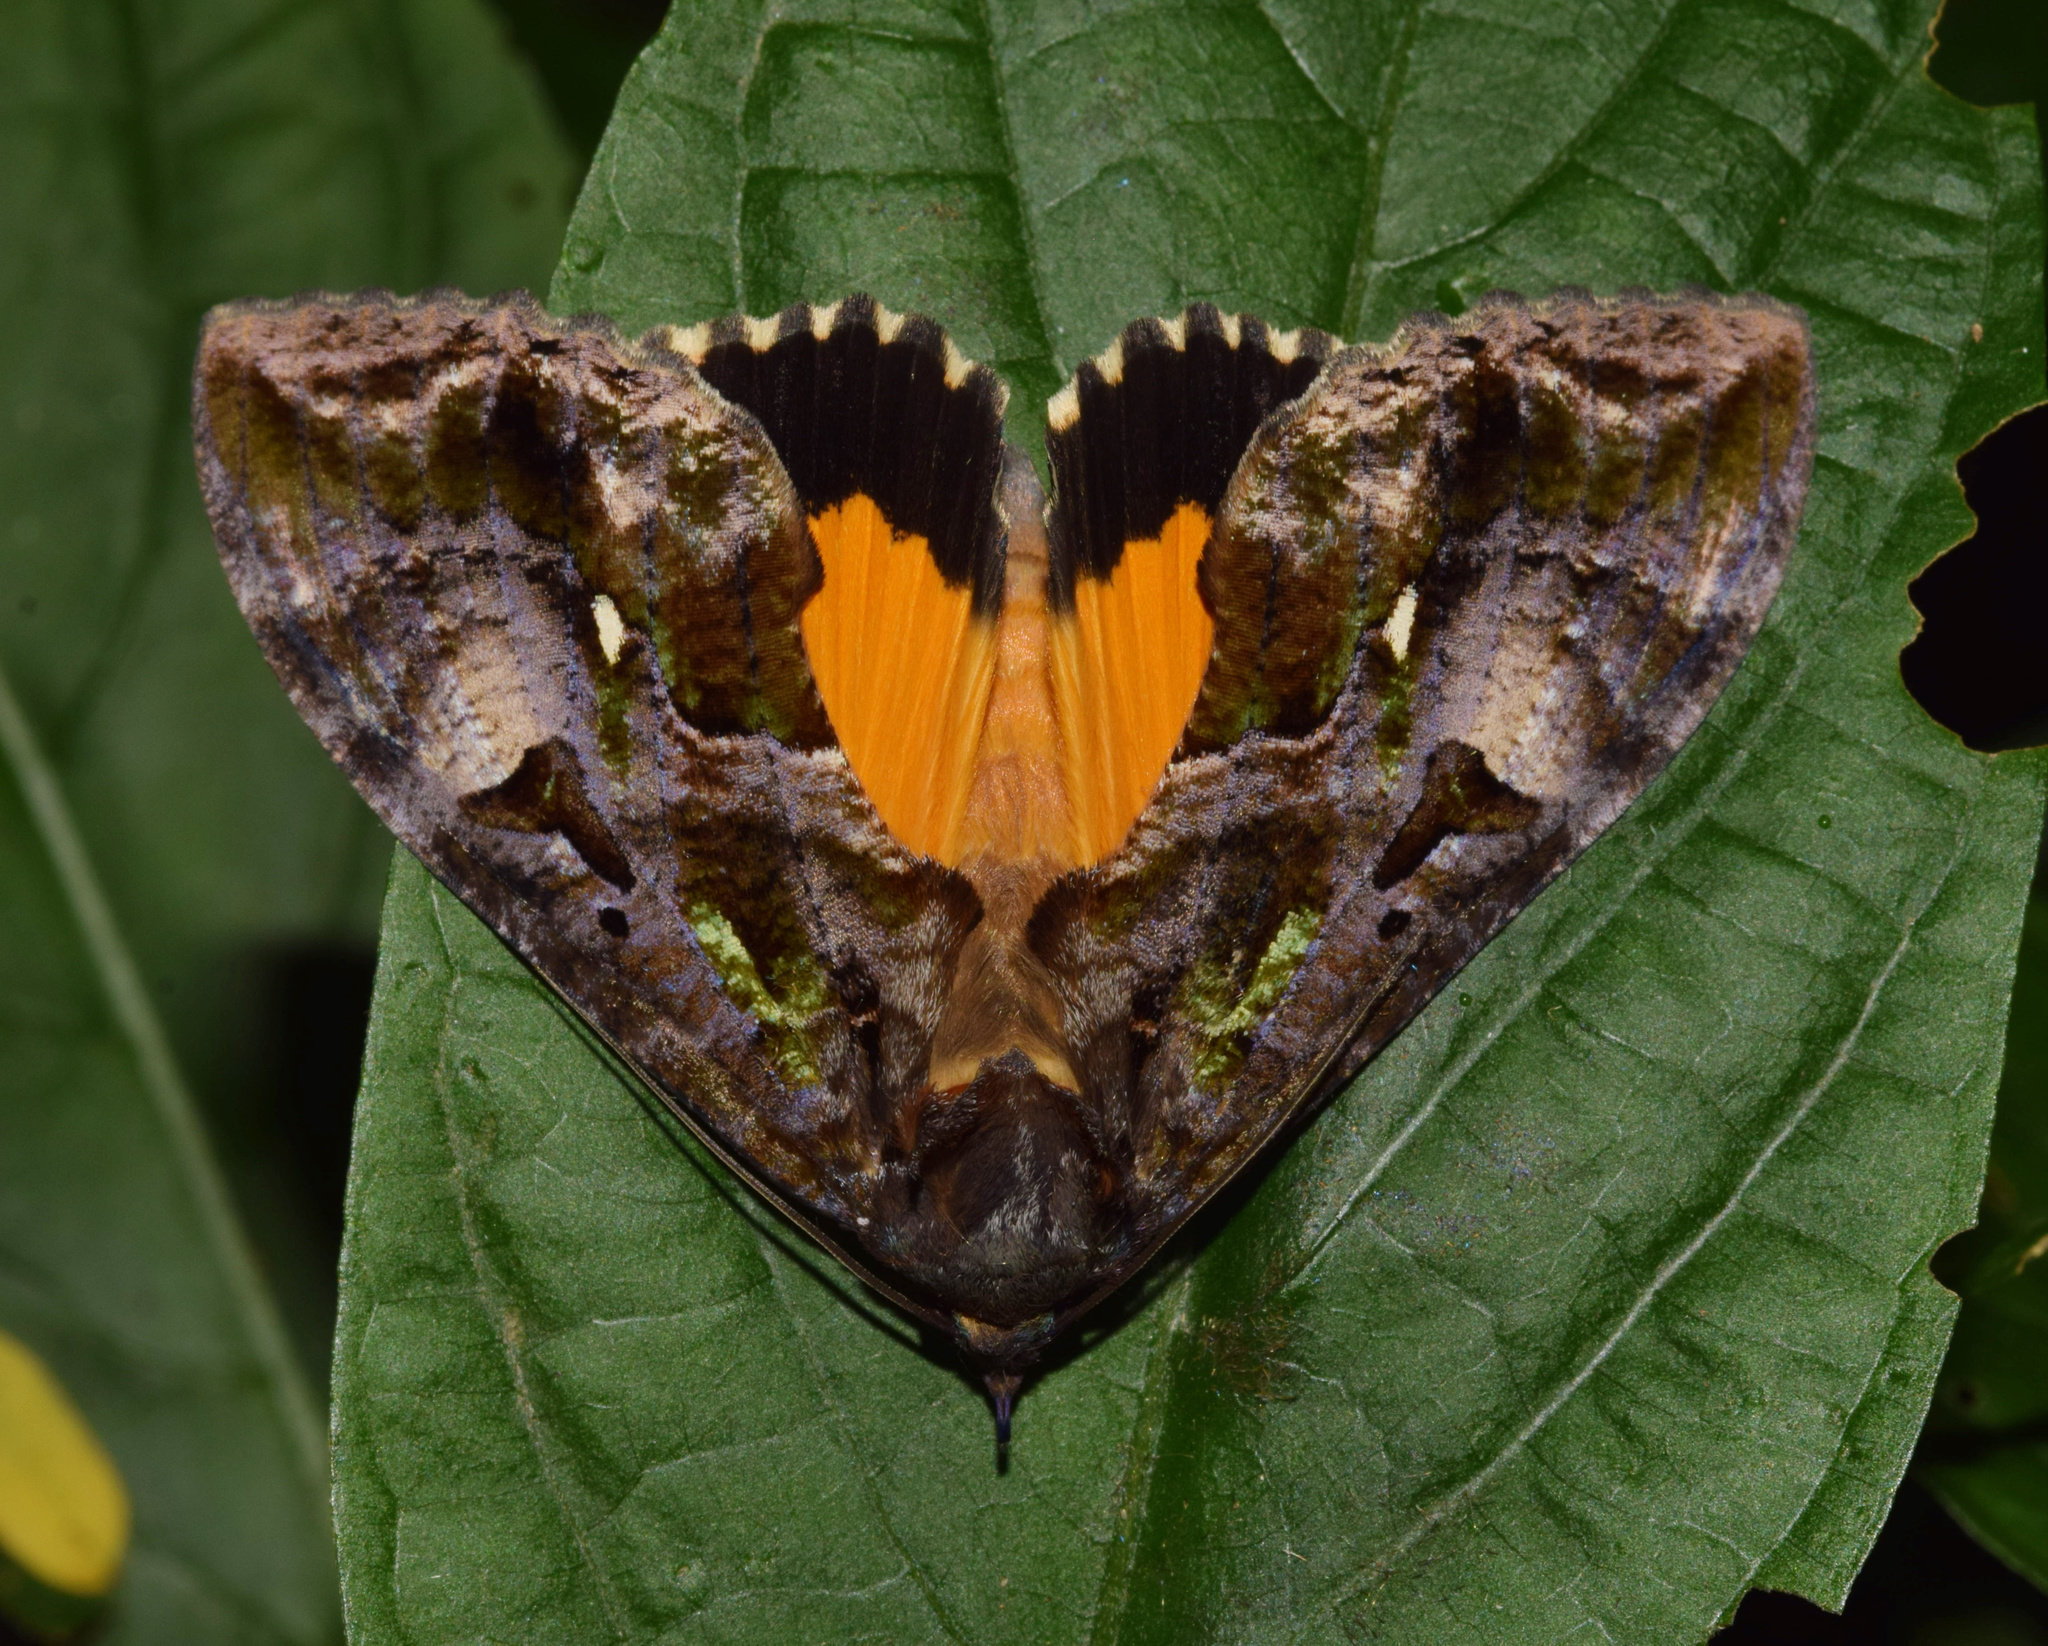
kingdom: Animalia
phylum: Arthropoda
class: Insecta
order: Lepidoptera
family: Erebidae
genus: Eudocima
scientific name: Eudocima divitiosa
